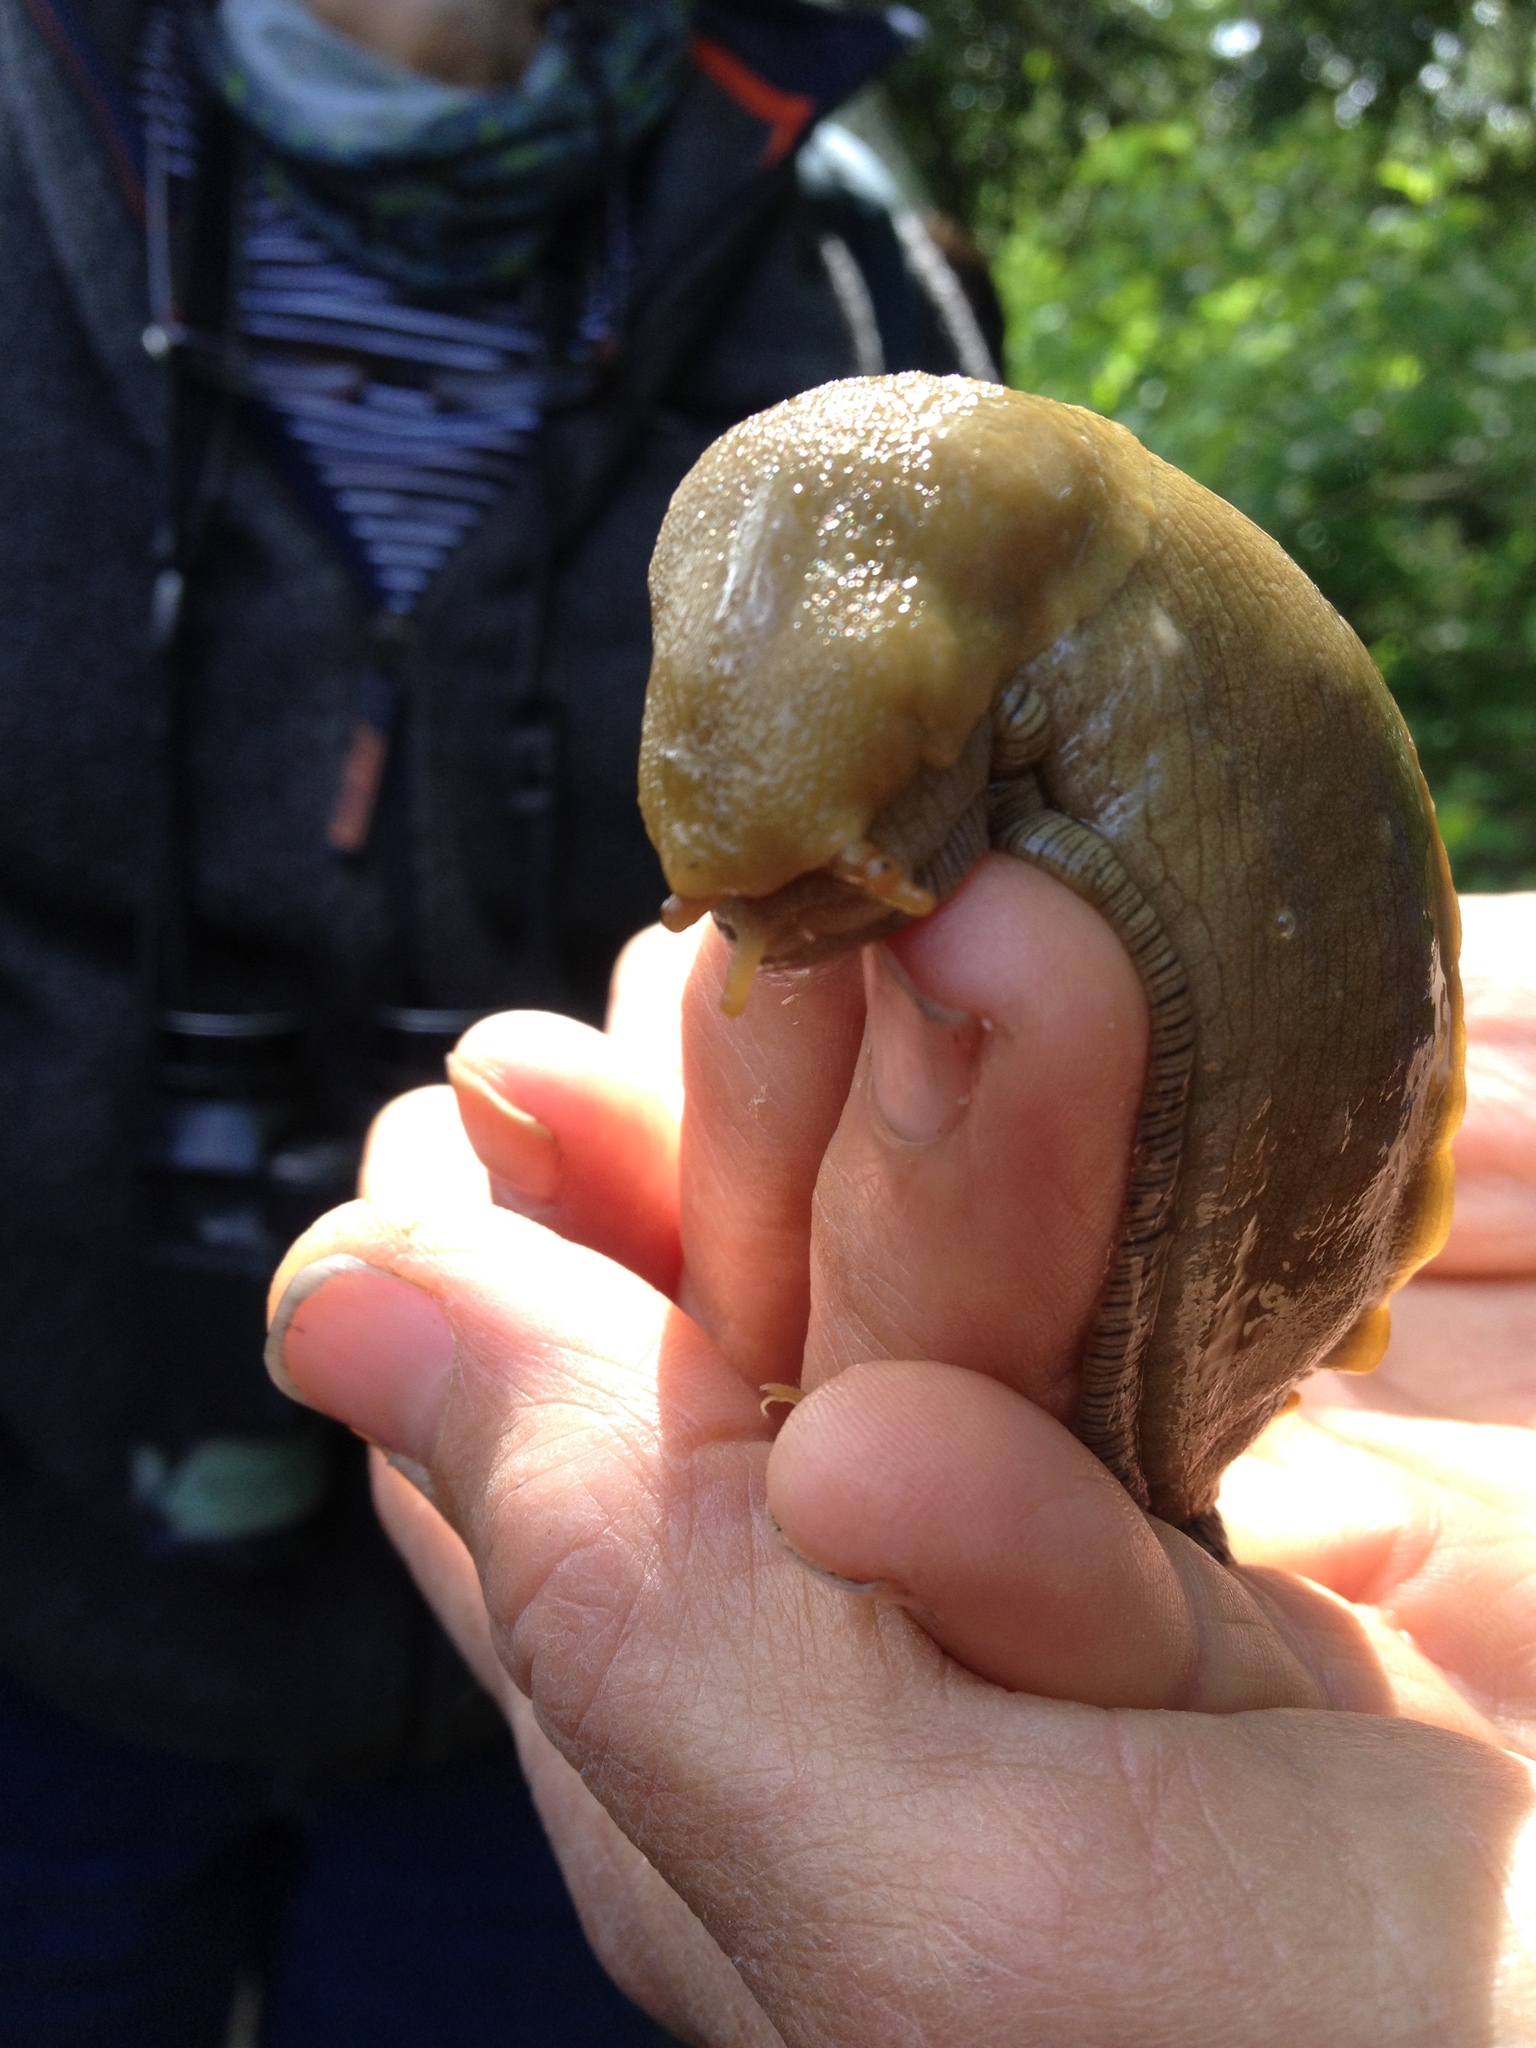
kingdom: Animalia
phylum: Mollusca
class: Gastropoda
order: Stylommatophora
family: Ariolimacidae
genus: Ariolimax
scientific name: Ariolimax buttoni
